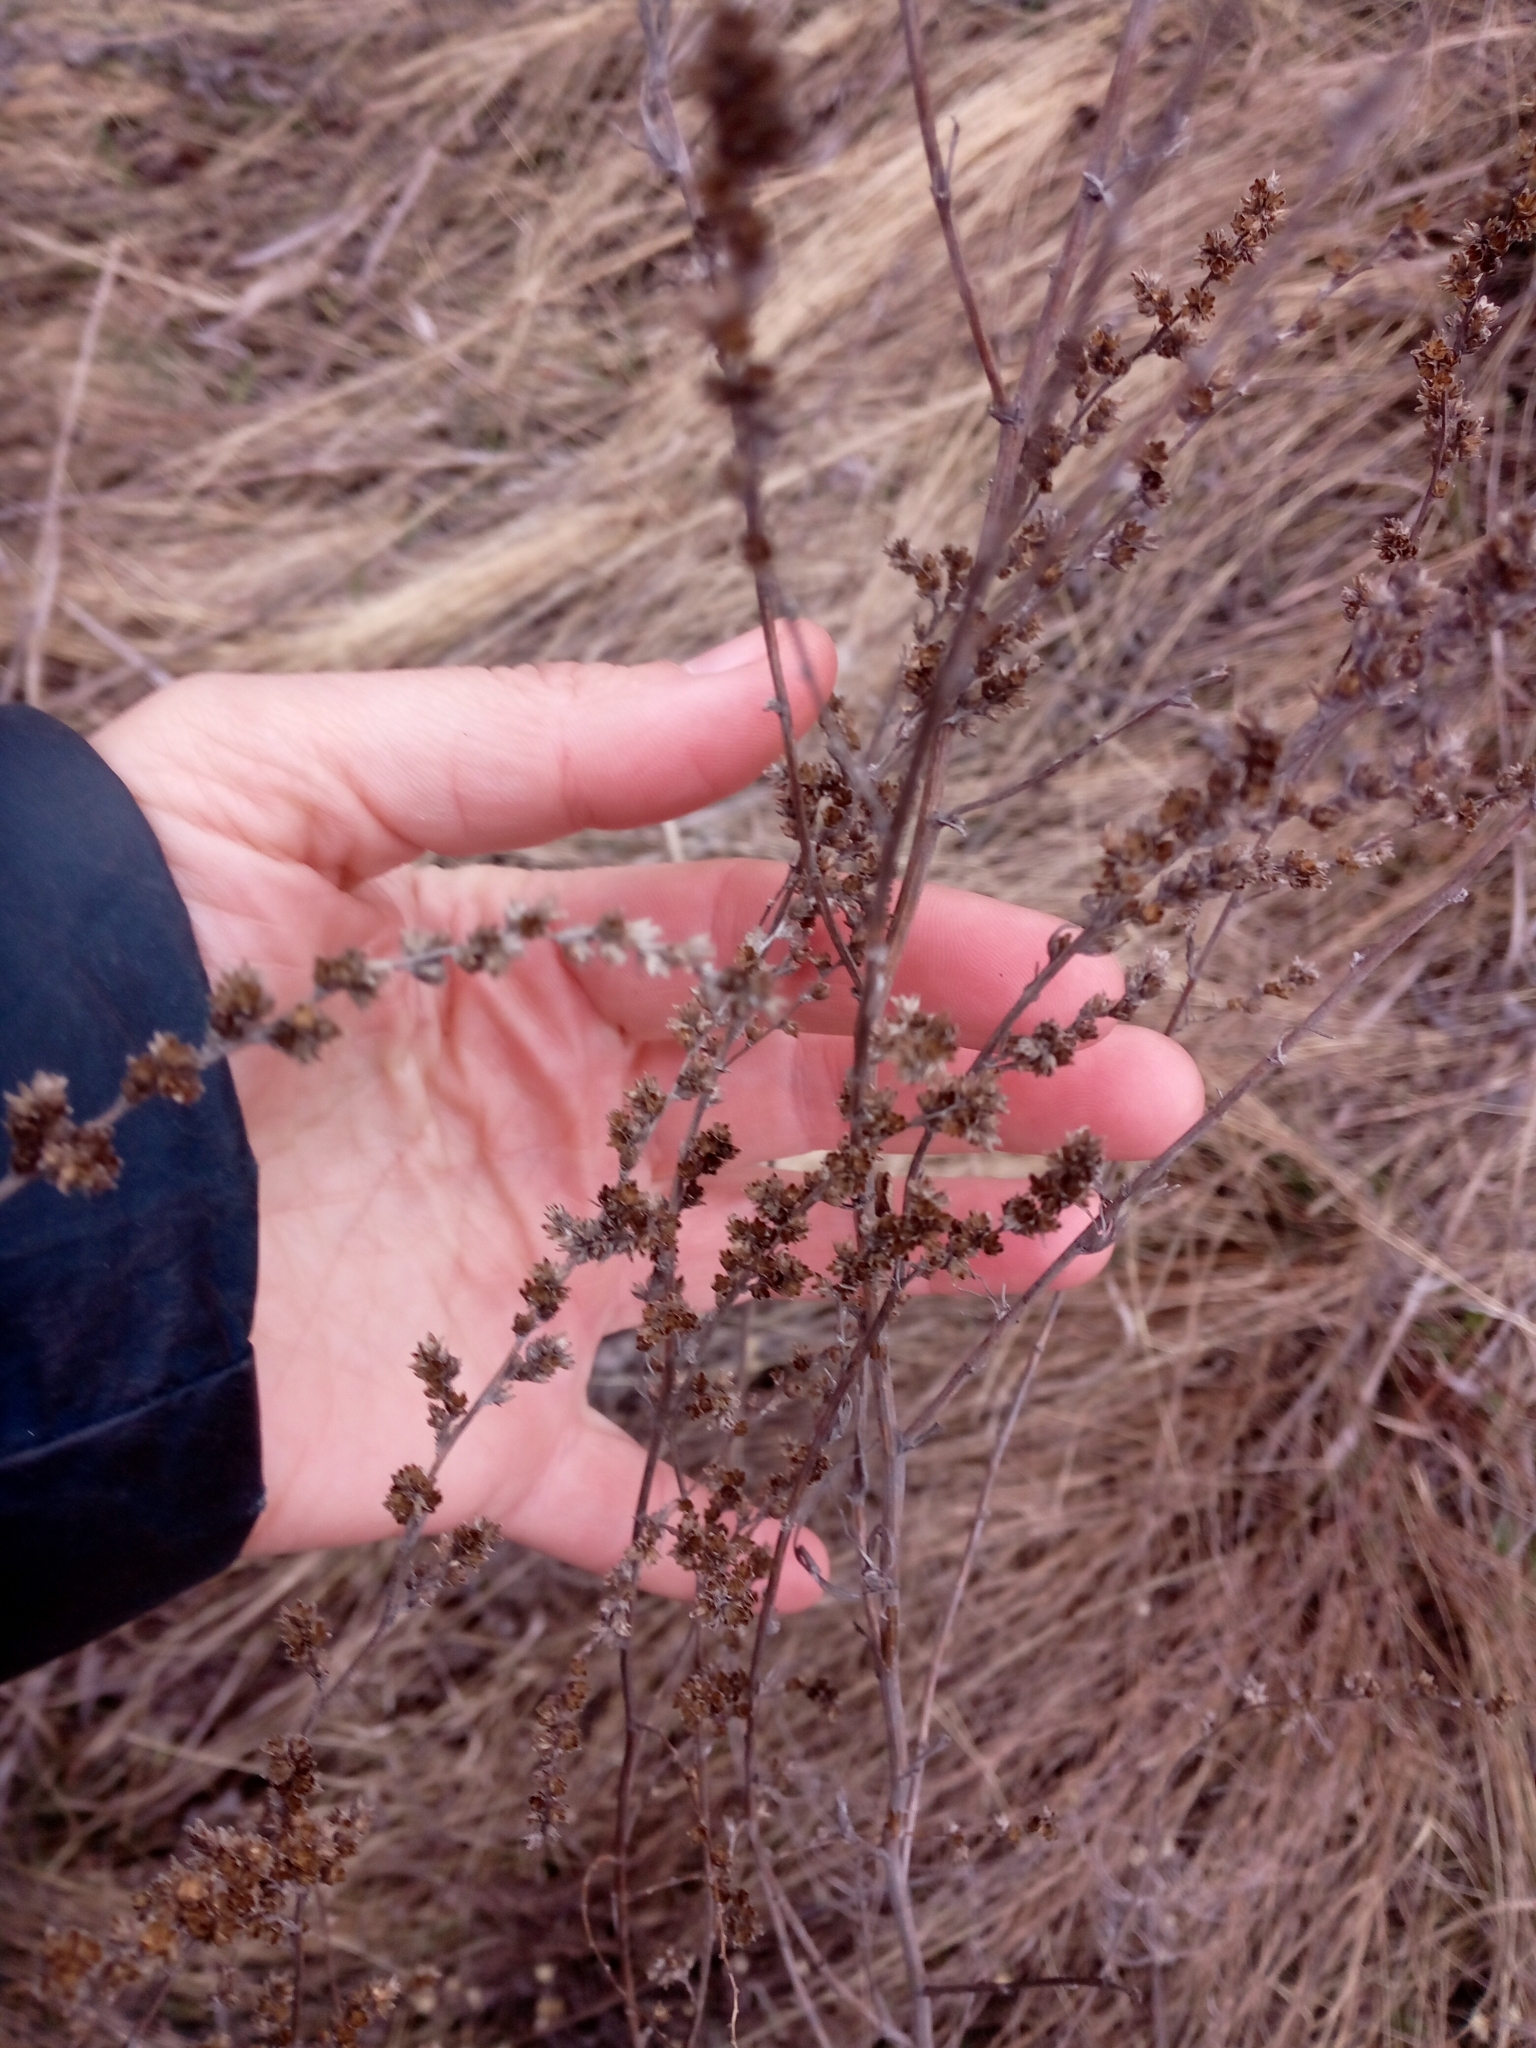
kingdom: Plantae
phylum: Tracheophyta
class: Magnoliopsida
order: Asterales
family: Asteraceae
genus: Artemisia
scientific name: Artemisia marschalliana
